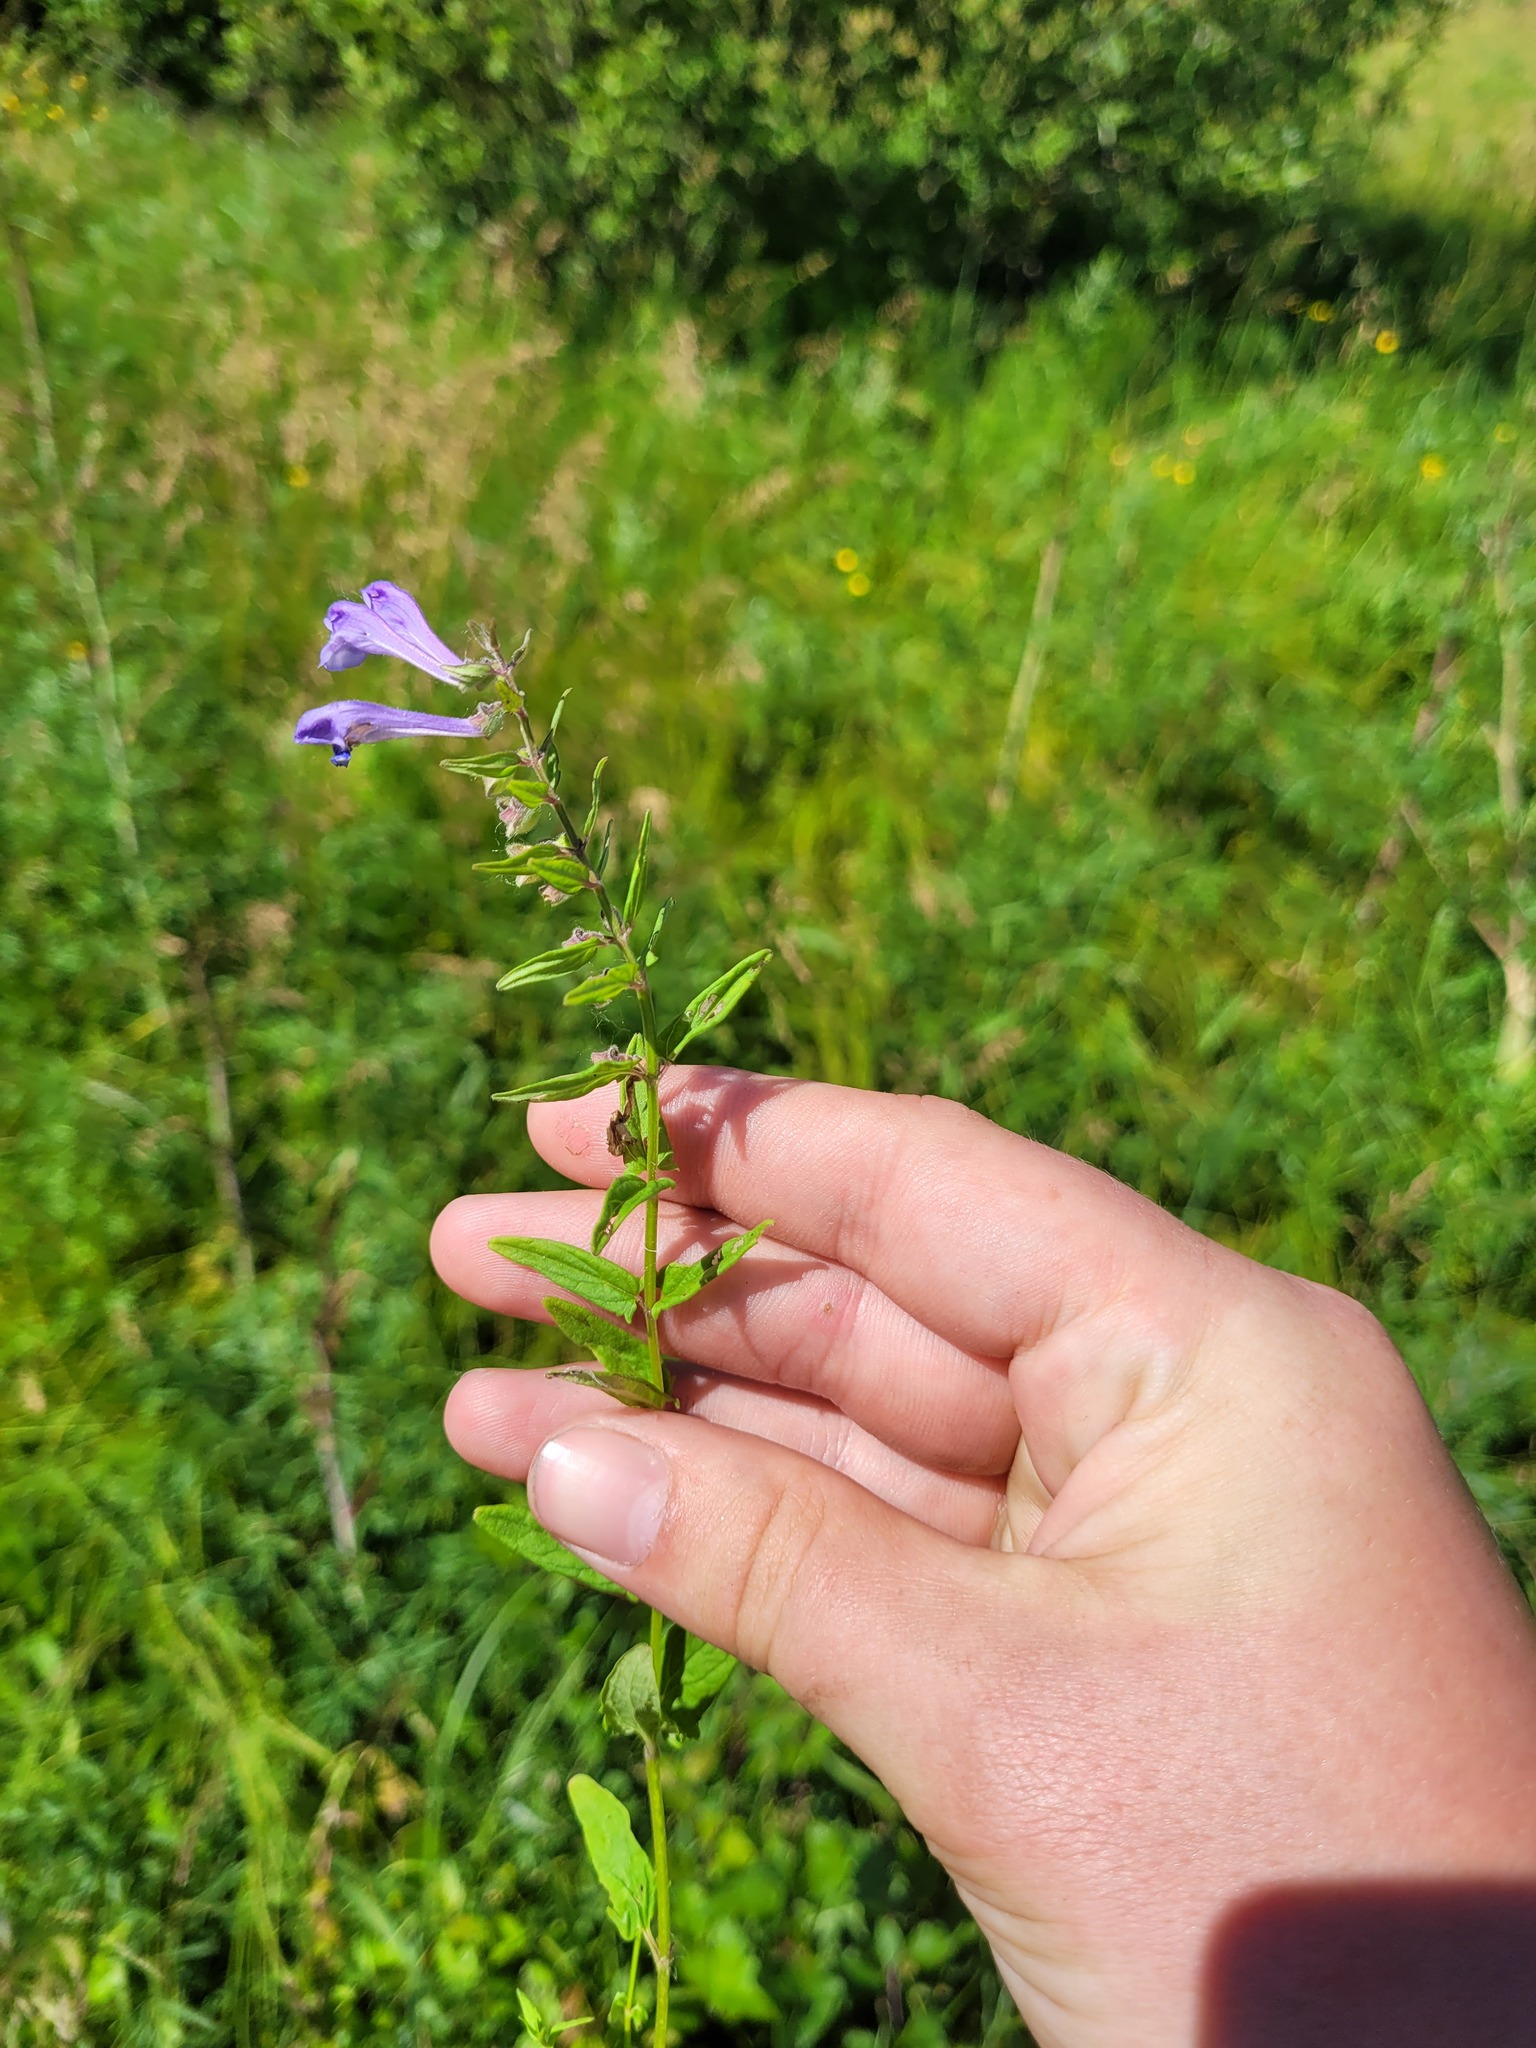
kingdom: Plantae
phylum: Tracheophyta
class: Magnoliopsida
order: Lamiales
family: Lamiaceae
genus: Scutellaria
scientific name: Scutellaria hastifolia
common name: Norfolk skullcap
